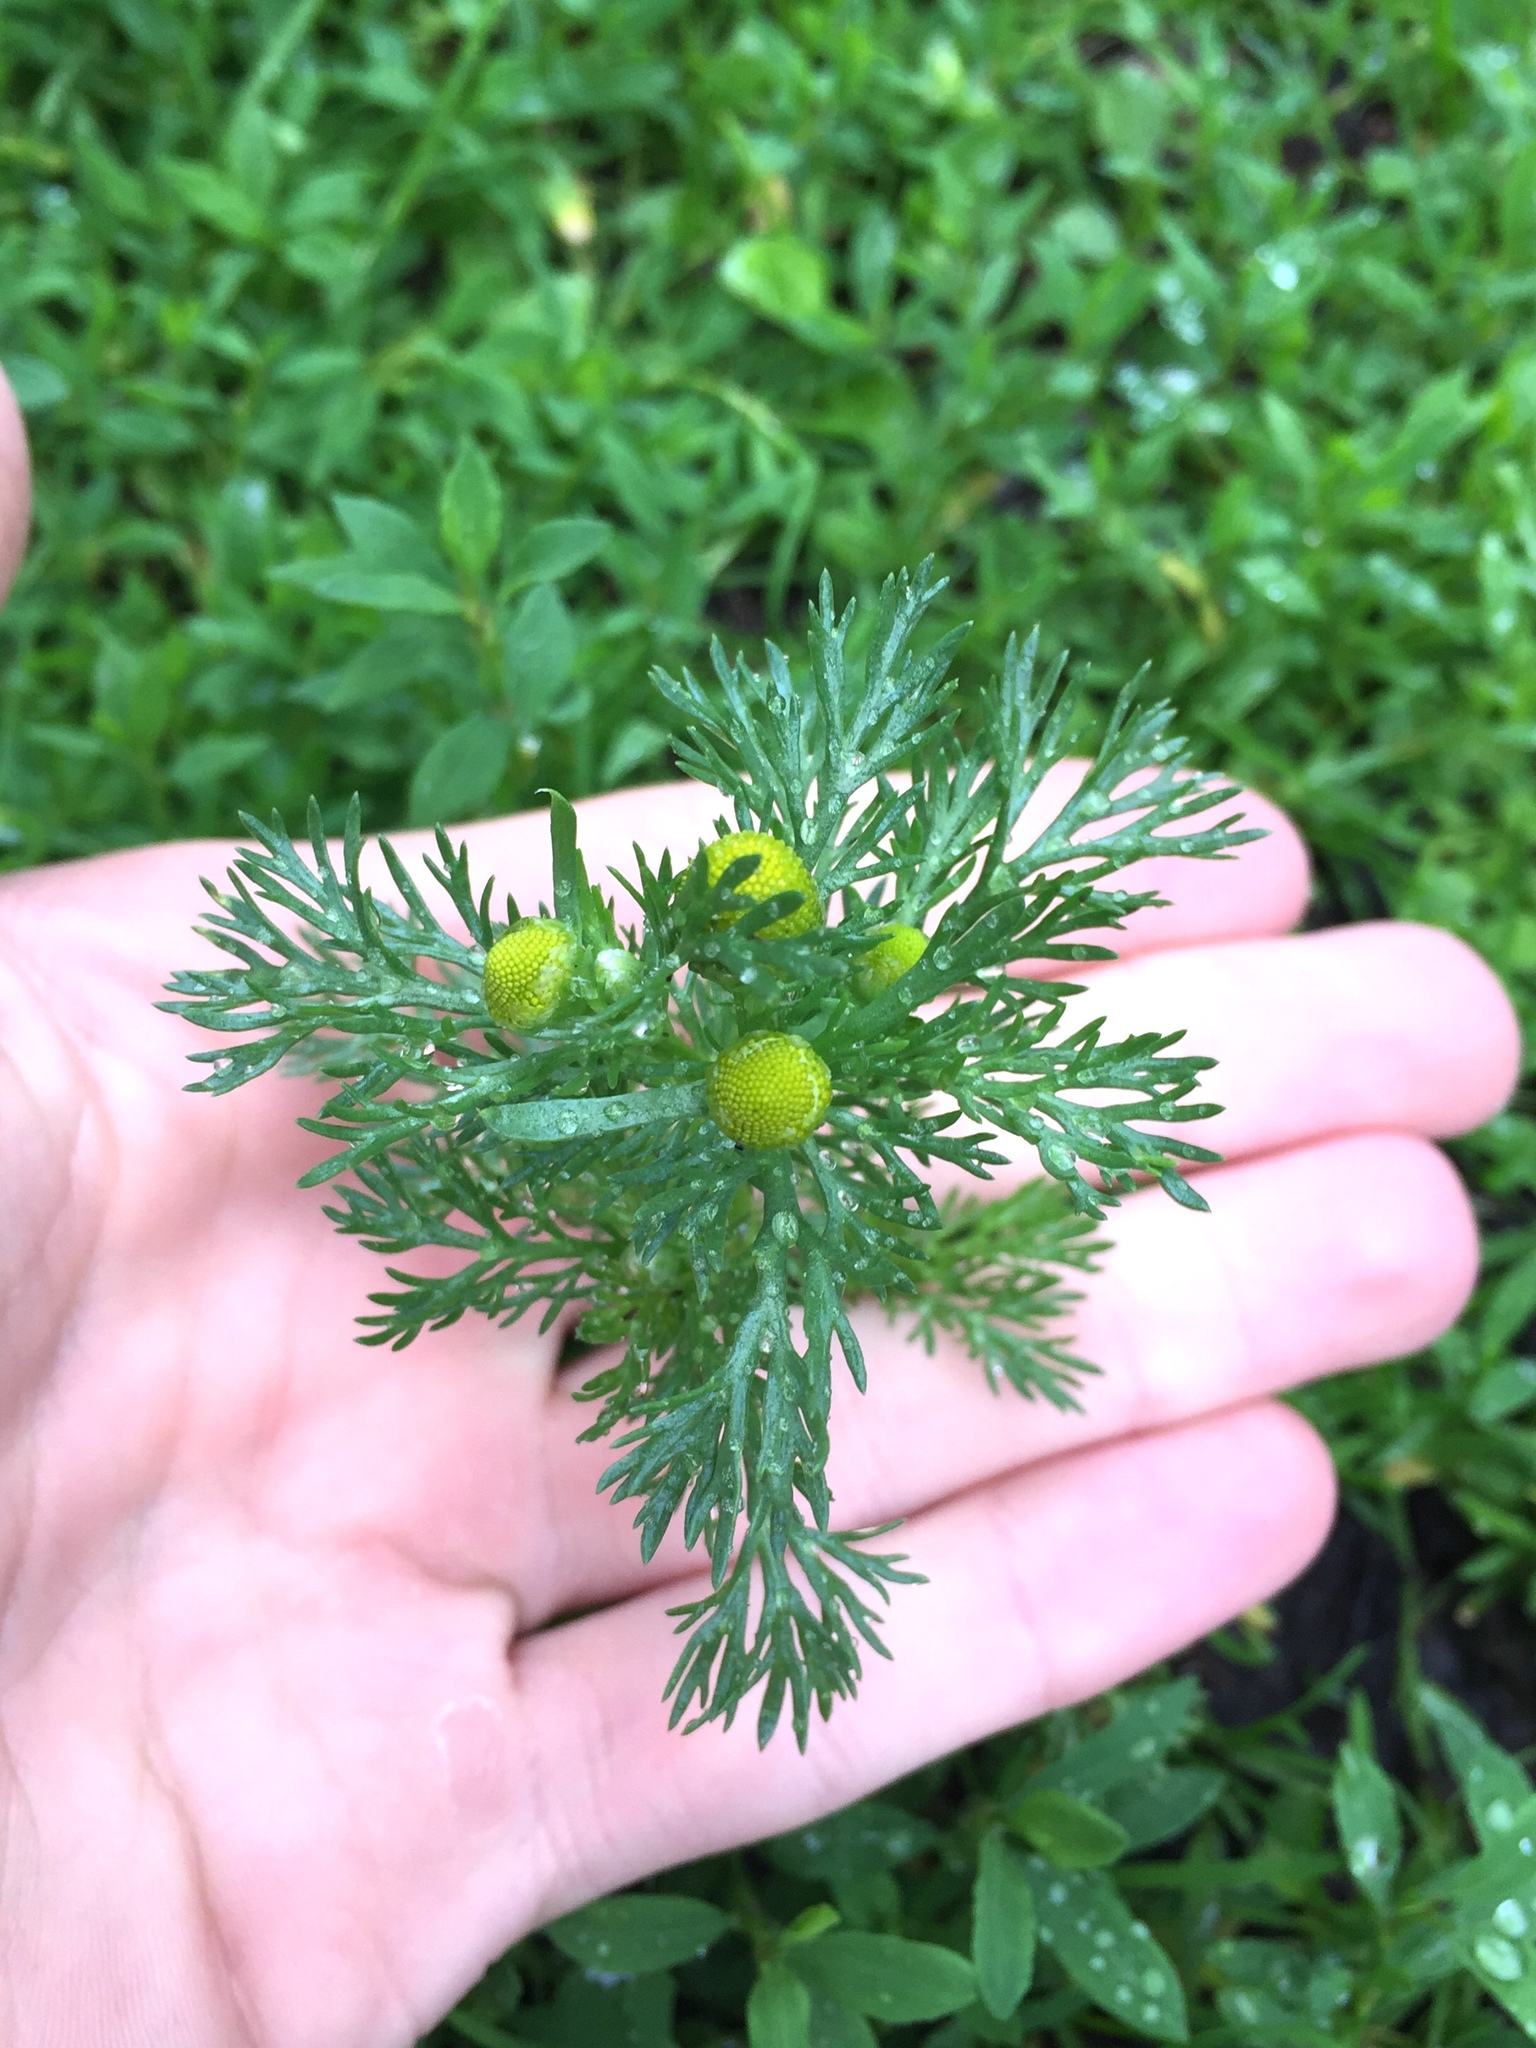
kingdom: Plantae
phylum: Tracheophyta
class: Magnoliopsida
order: Asterales
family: Asteraceae
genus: Matricaria
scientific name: Matricaria discoidea
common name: Disc mayweed
